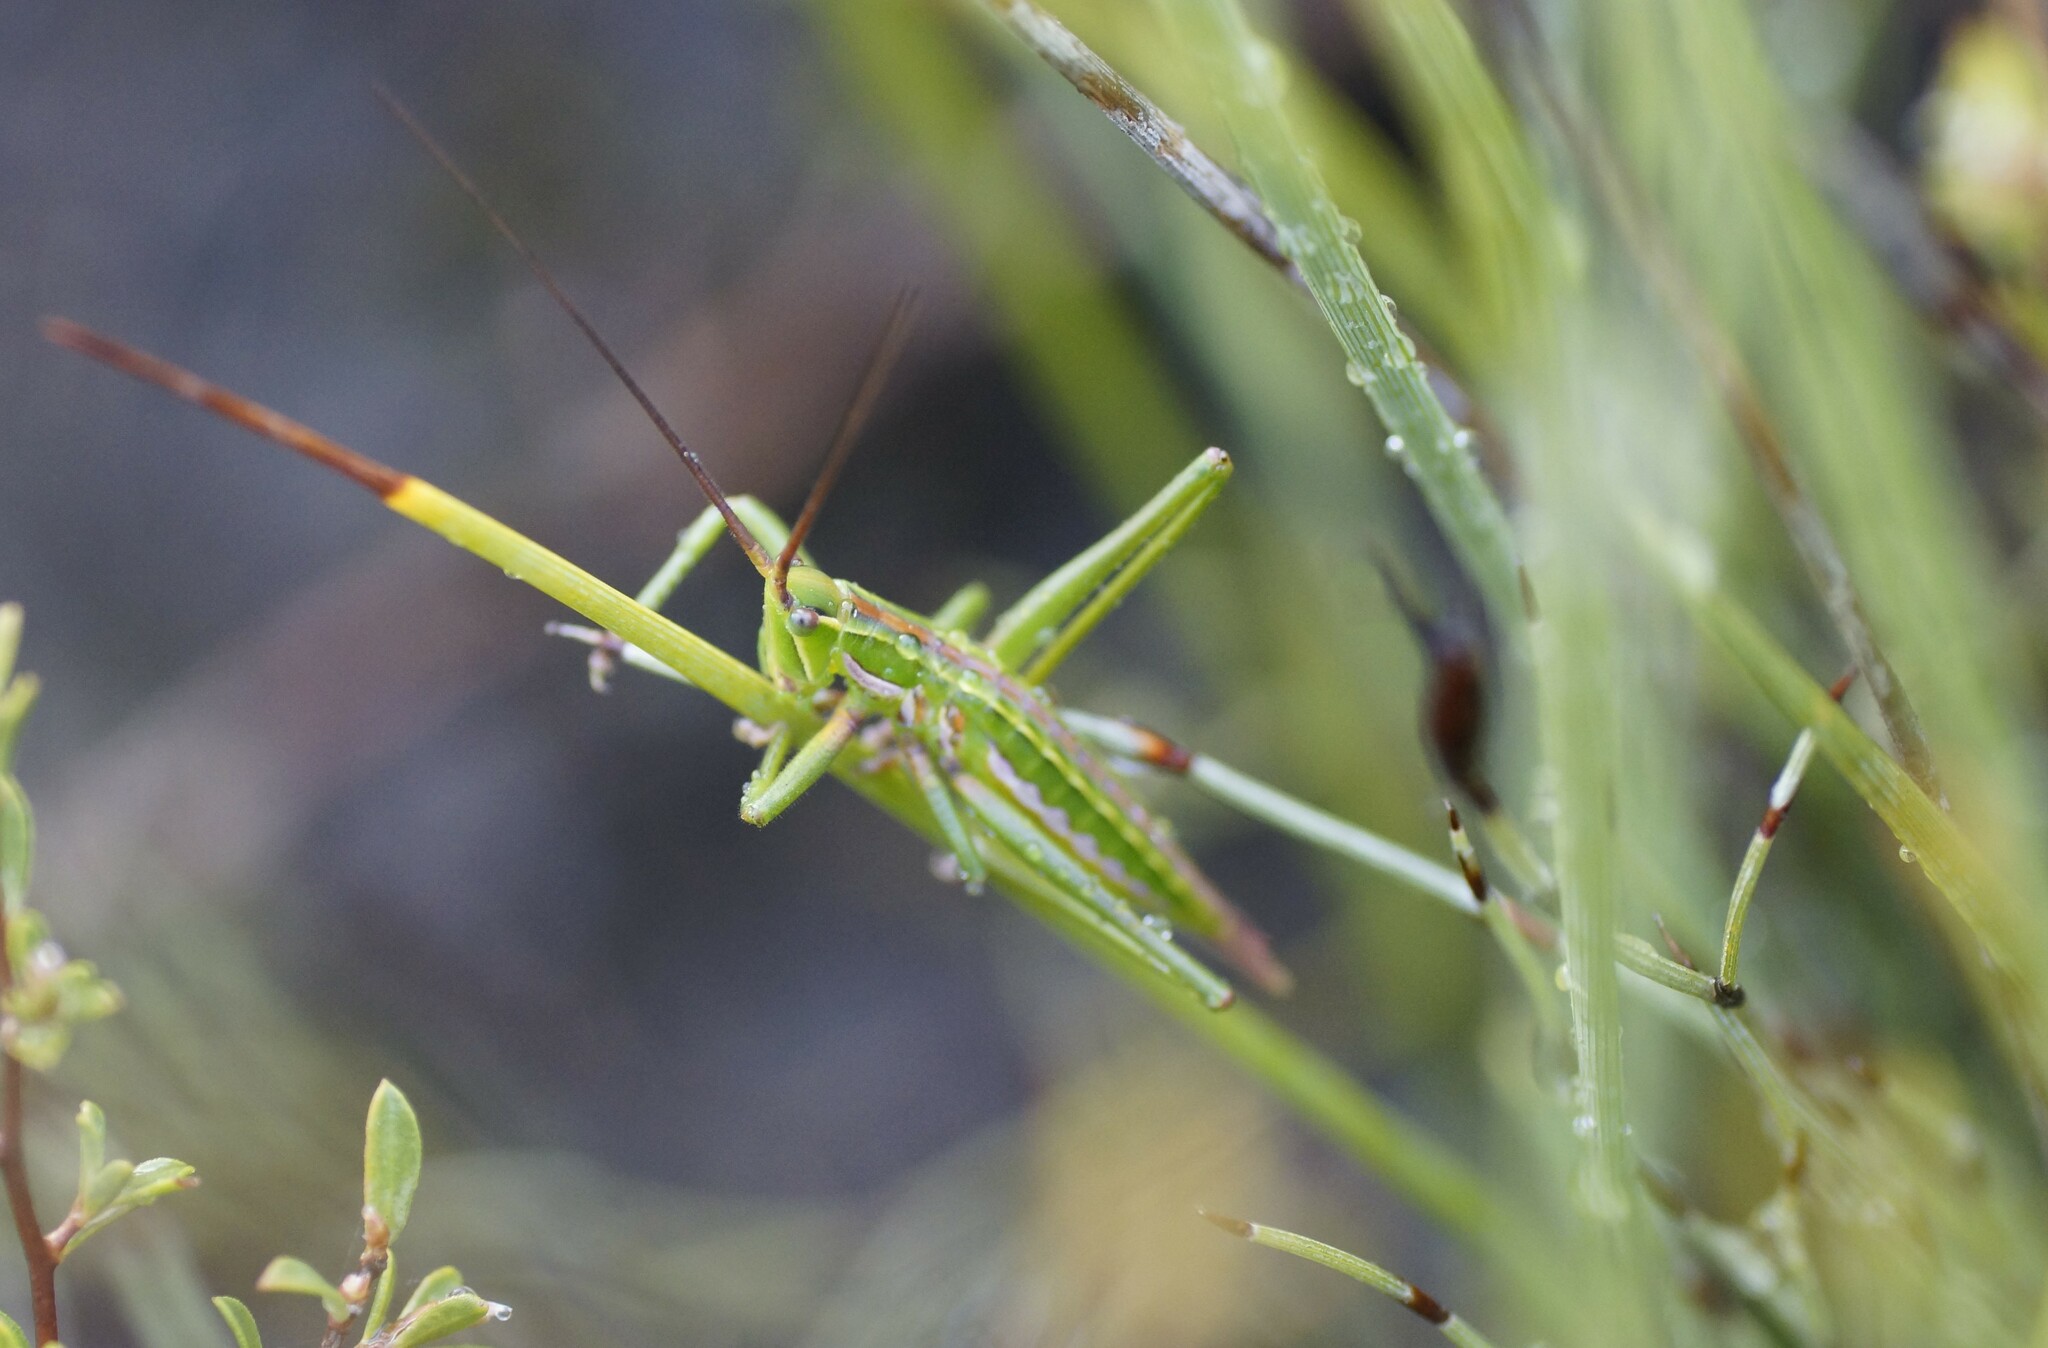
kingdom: Animalia
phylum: Arthropoda
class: Insecta
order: Orthoptera
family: Tettigoniidae
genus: Hemisaga
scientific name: Hemisaga lanceolata
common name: Victorian sluggish katydid
